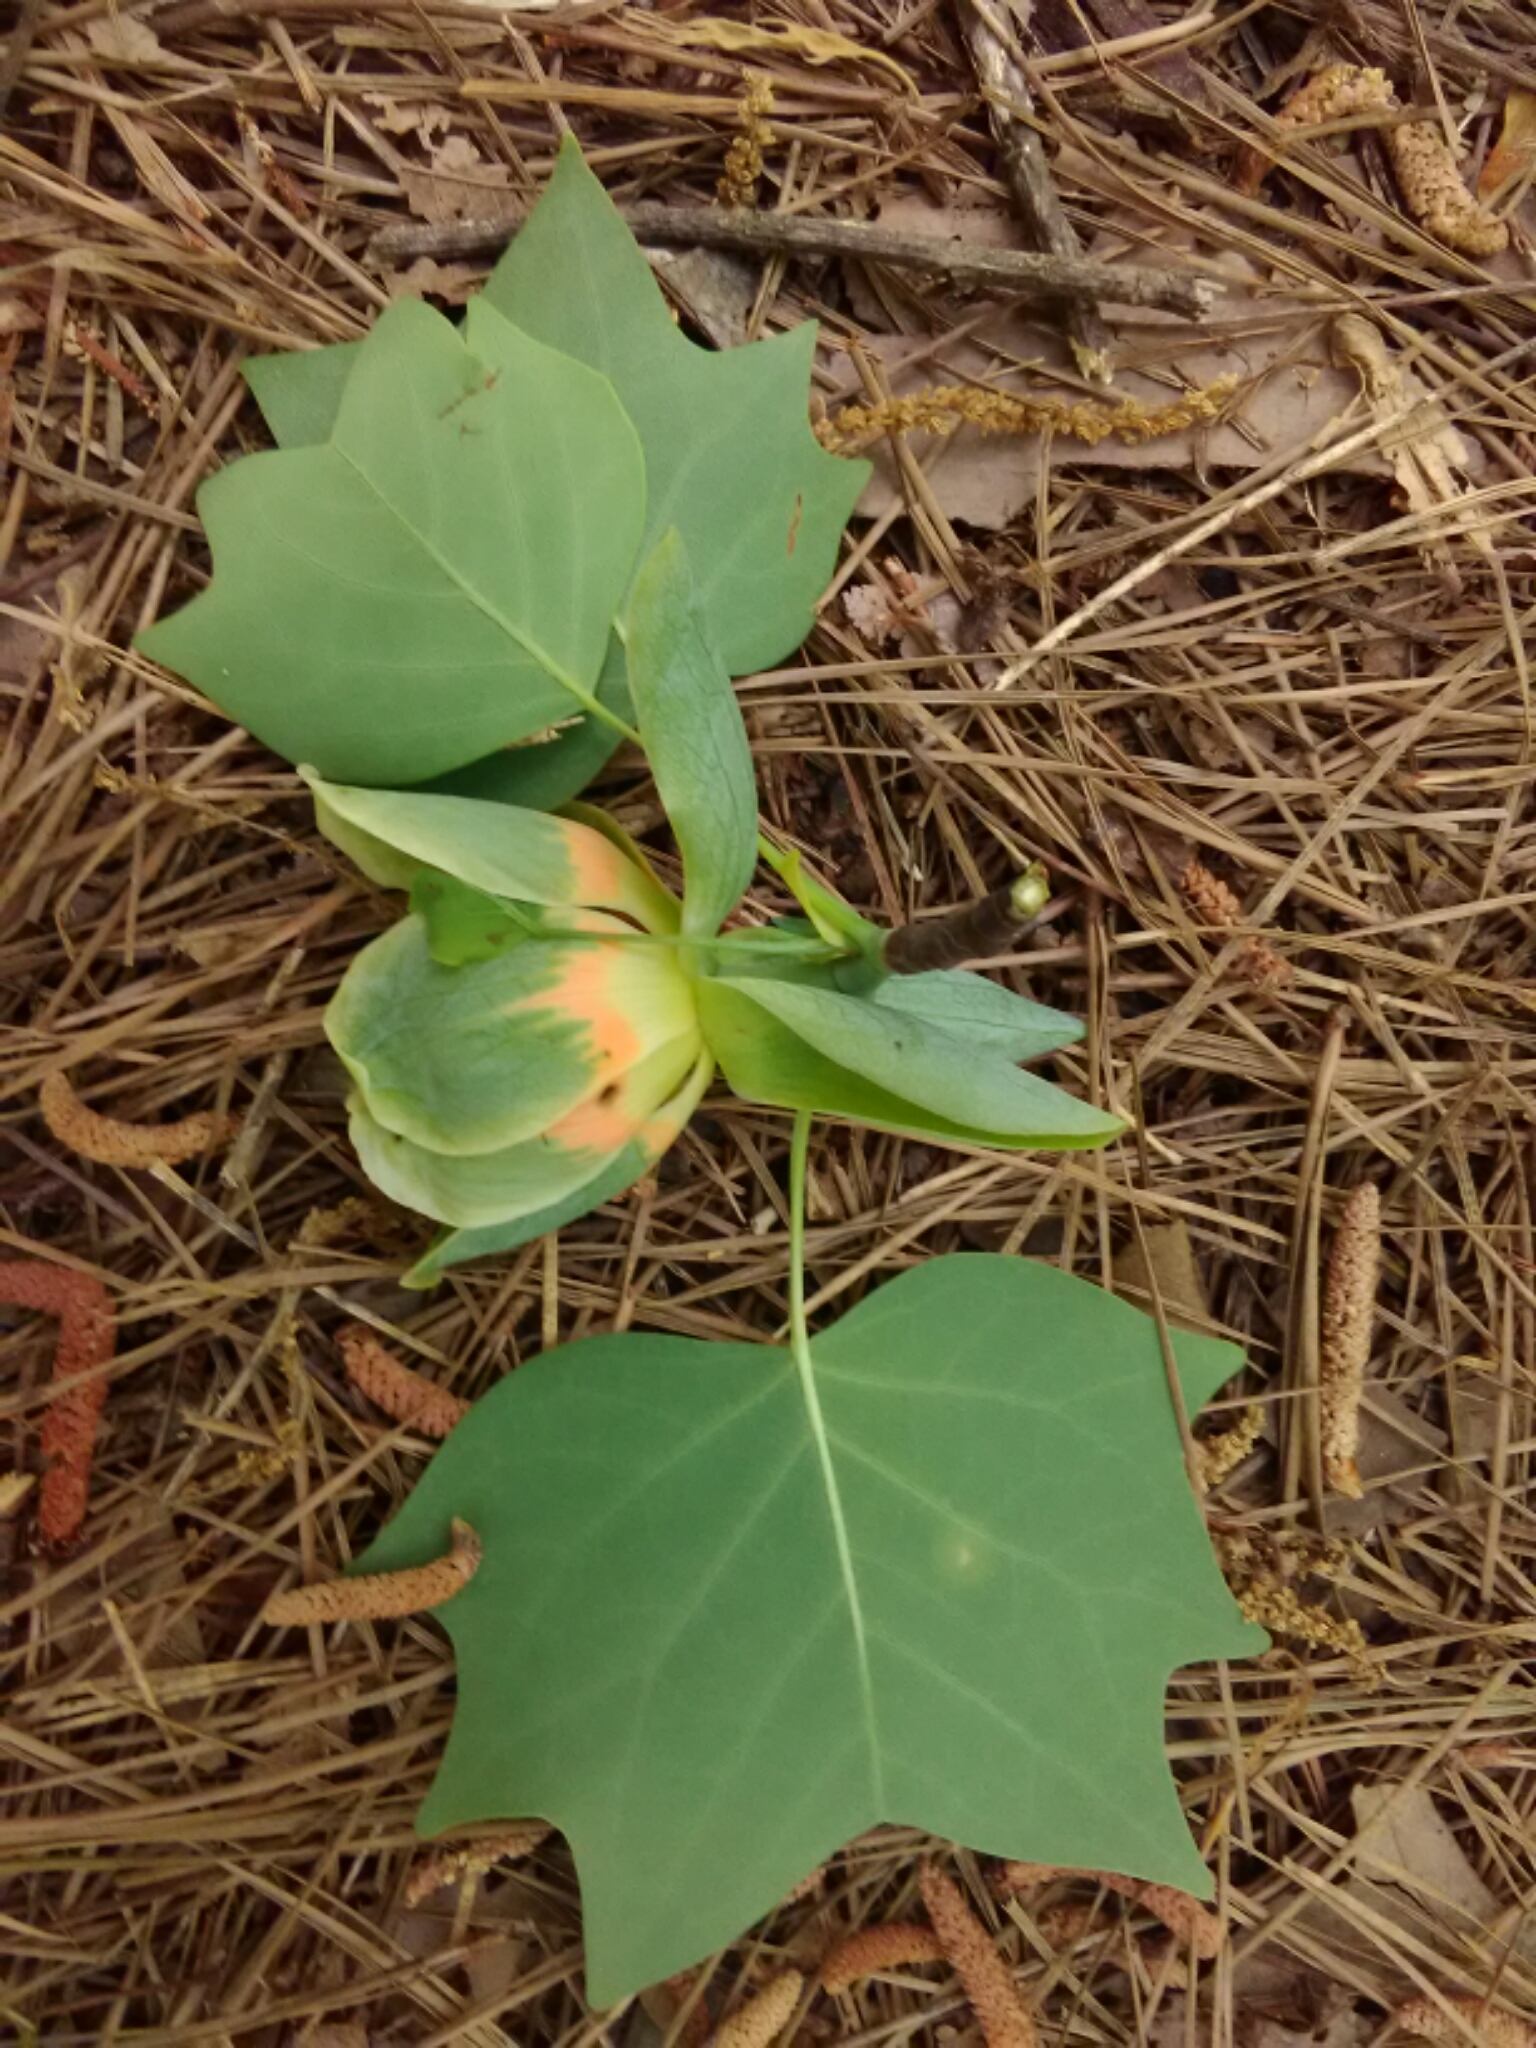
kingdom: Plantae
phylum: Tracheophyta
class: Magnoliopsida
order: Magnoliales
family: Magnoliaceae
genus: Liriodendron
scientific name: Liriodendron tulipifera
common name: Tulip tree
